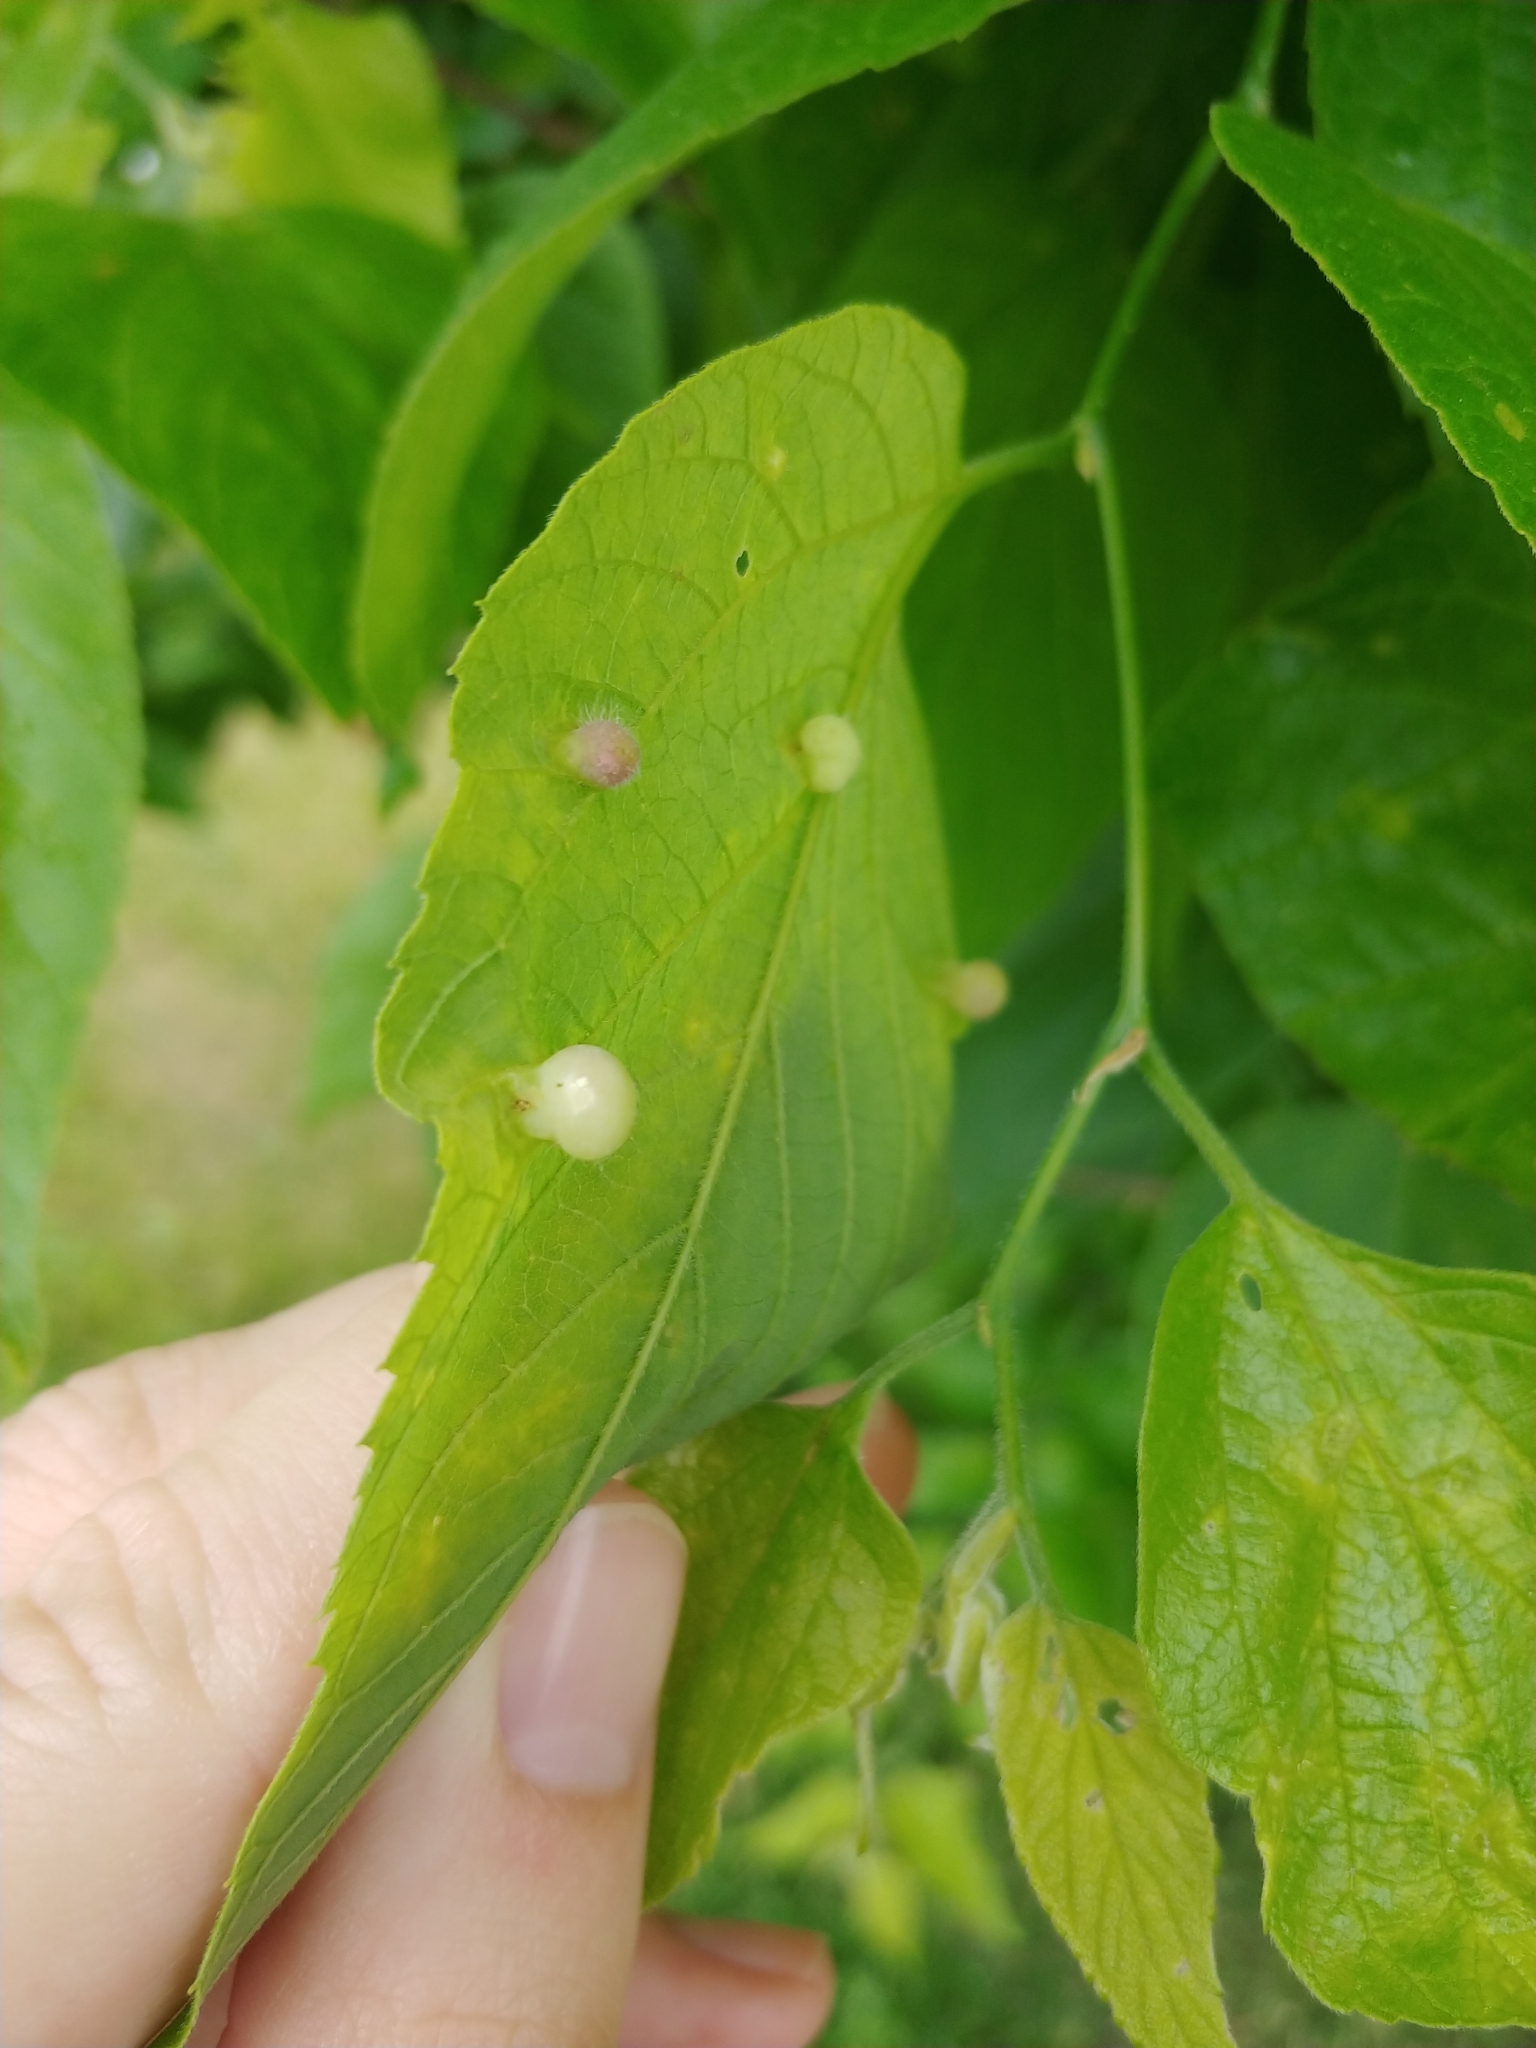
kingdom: Animalia
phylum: Arthropoda
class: Insecta
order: Hemiptera
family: Aphalaridae
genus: Pachypsylla
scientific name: Pachypsylla celtidismamma
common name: Hackberry nipplegall psyllid
